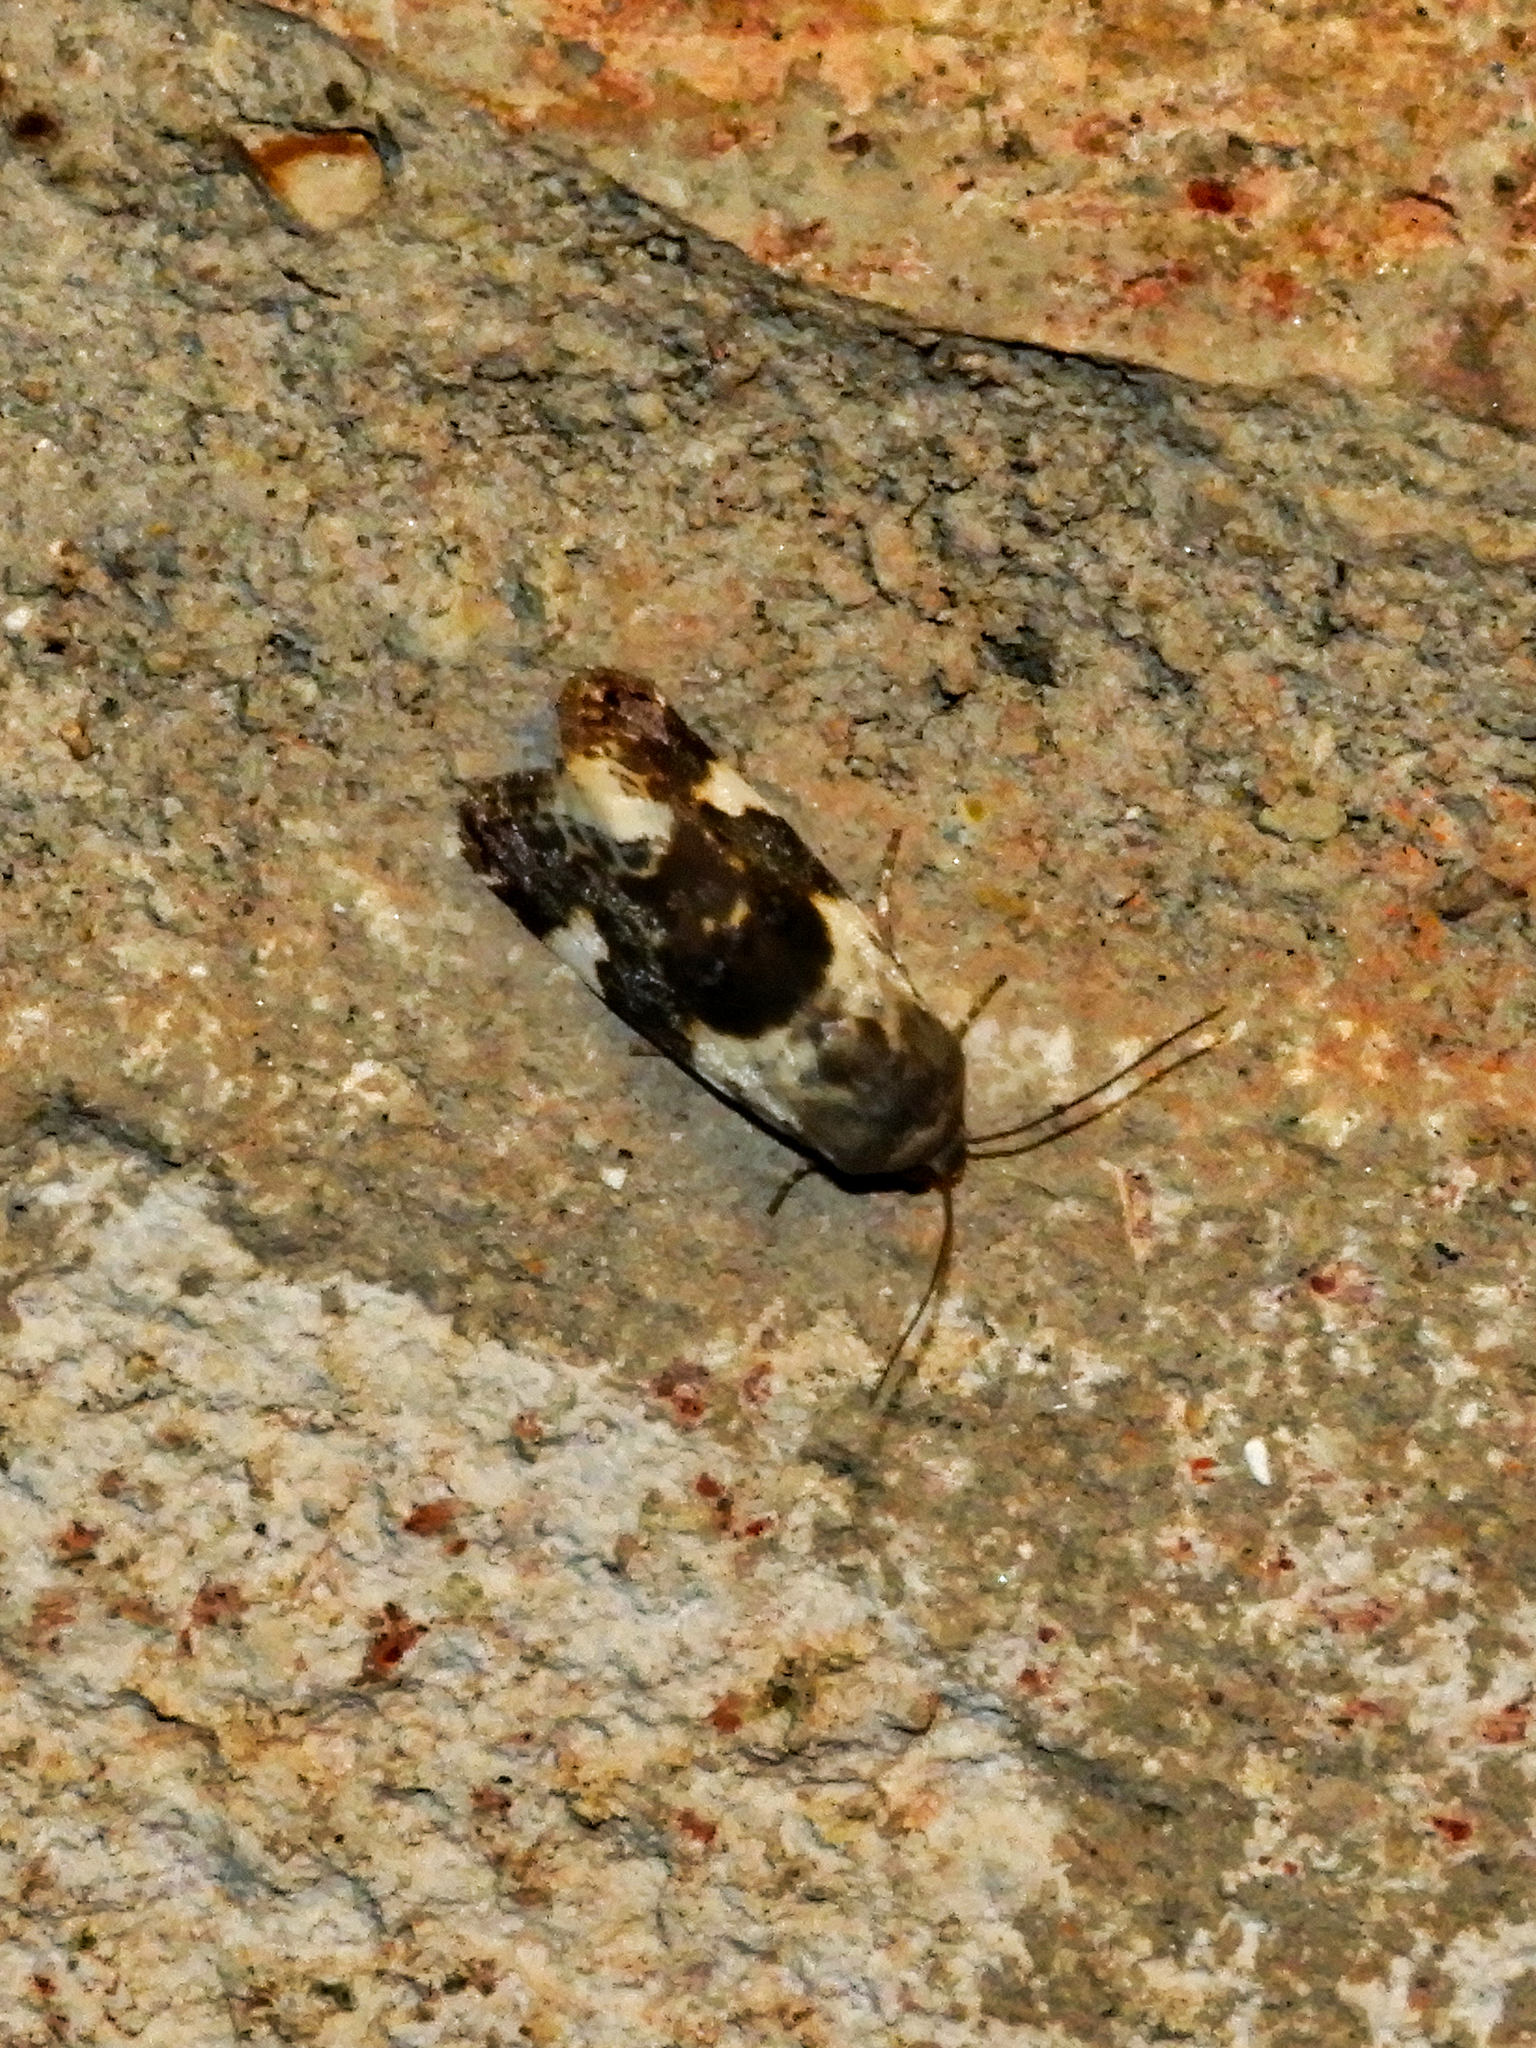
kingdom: Animalia
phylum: Arthropoda
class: Insecta
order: Lepidoptera
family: Noctuidae
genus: Acontia
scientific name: Acontia lucida
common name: Pale shoulder
